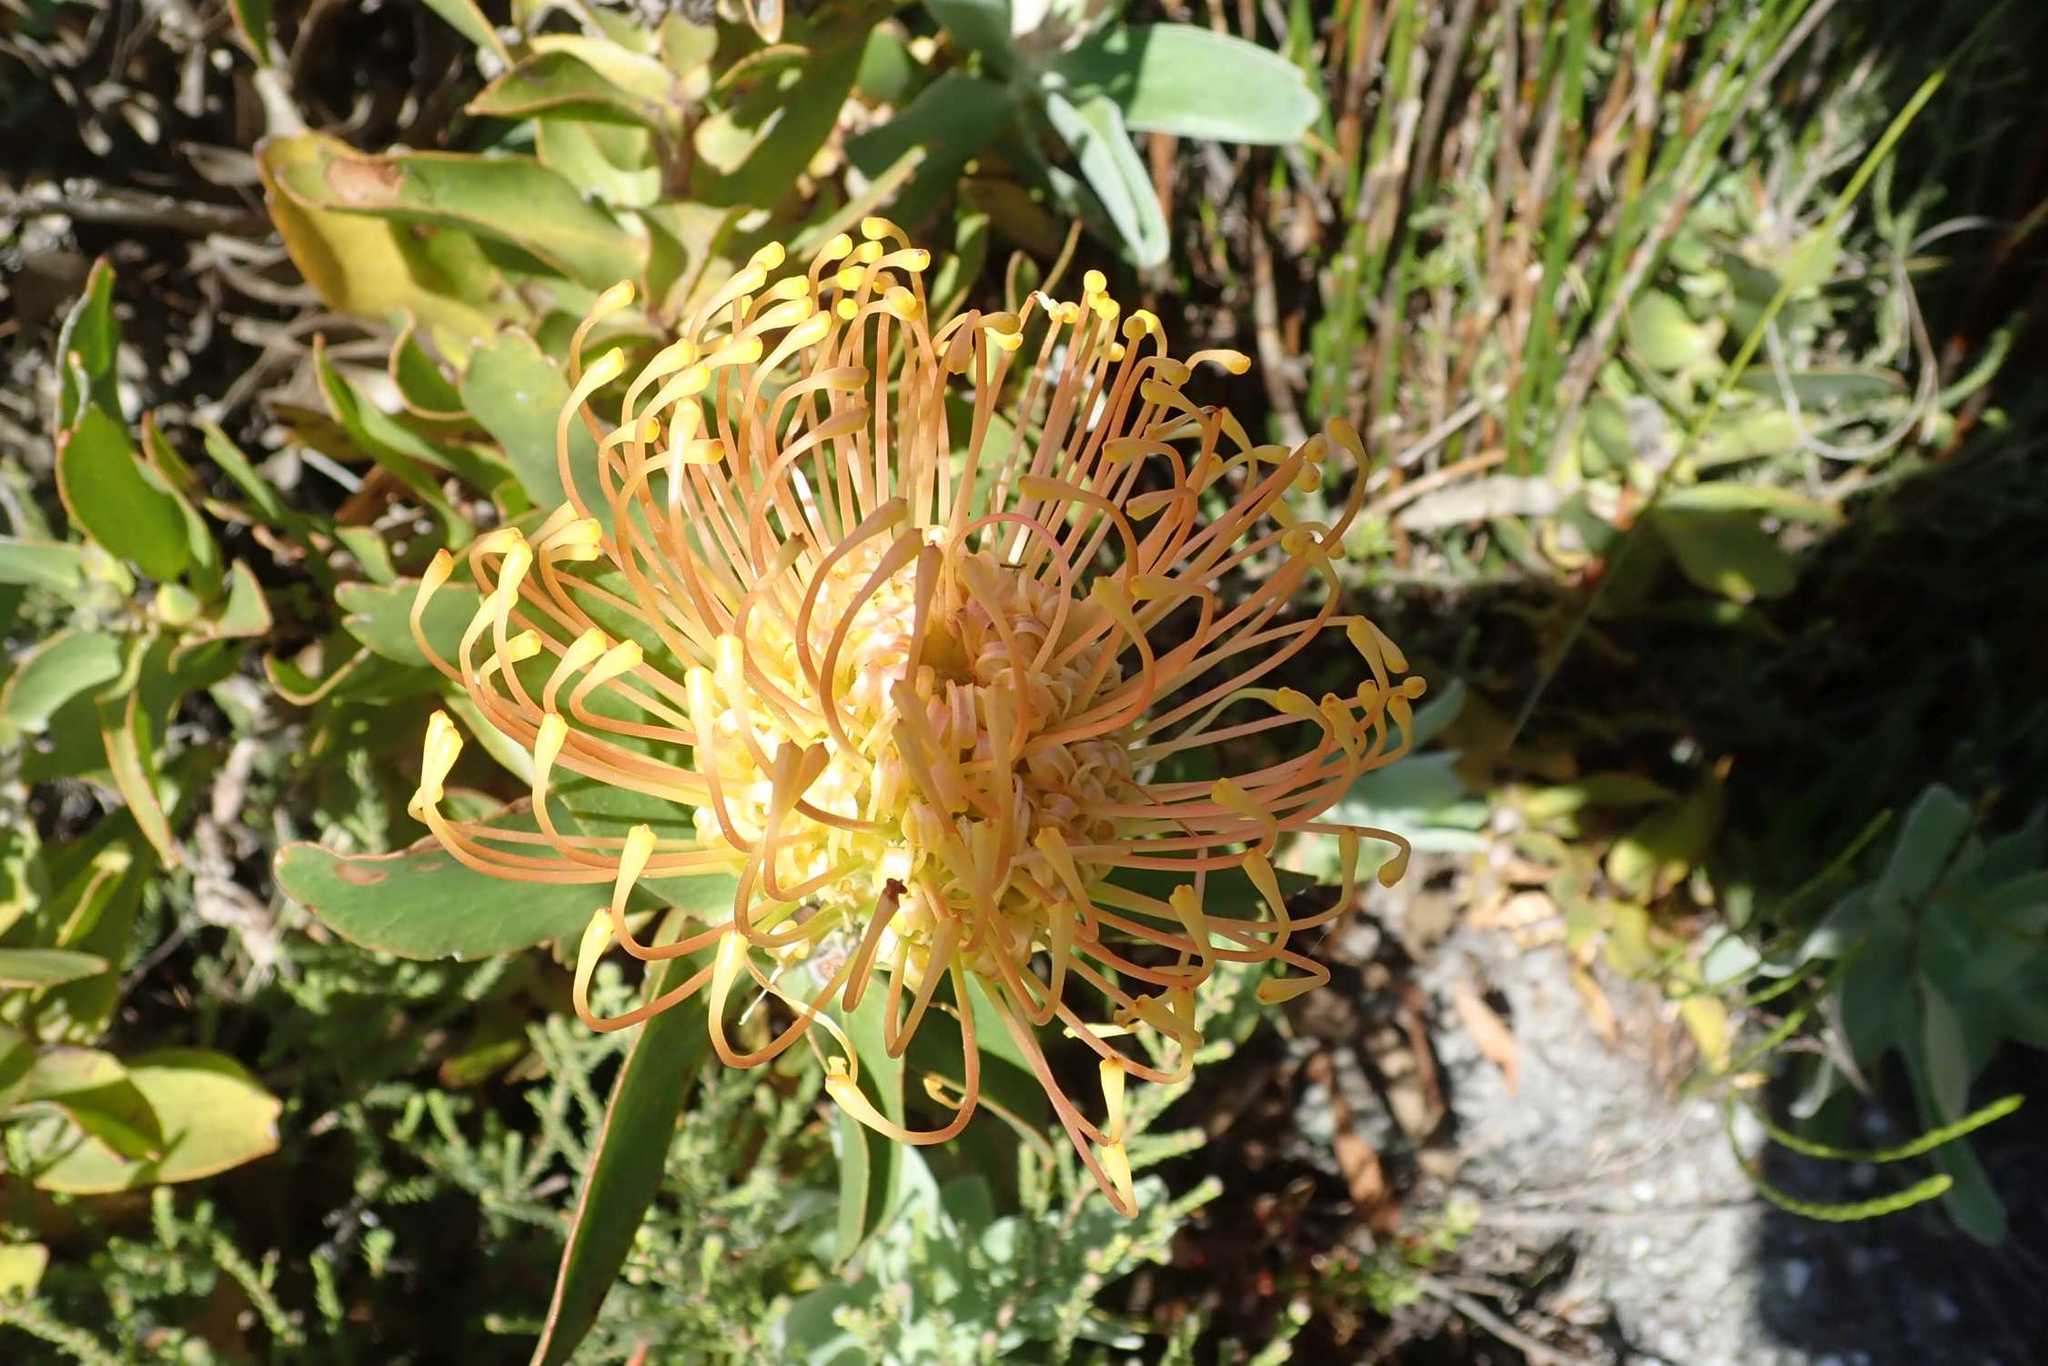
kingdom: Plantae
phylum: Tracheophyta
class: Magnoliopsida
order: Proteales
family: Proteaceae
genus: Leucospermum
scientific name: Leucospermum cordifolium
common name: Red pincushion-protea
